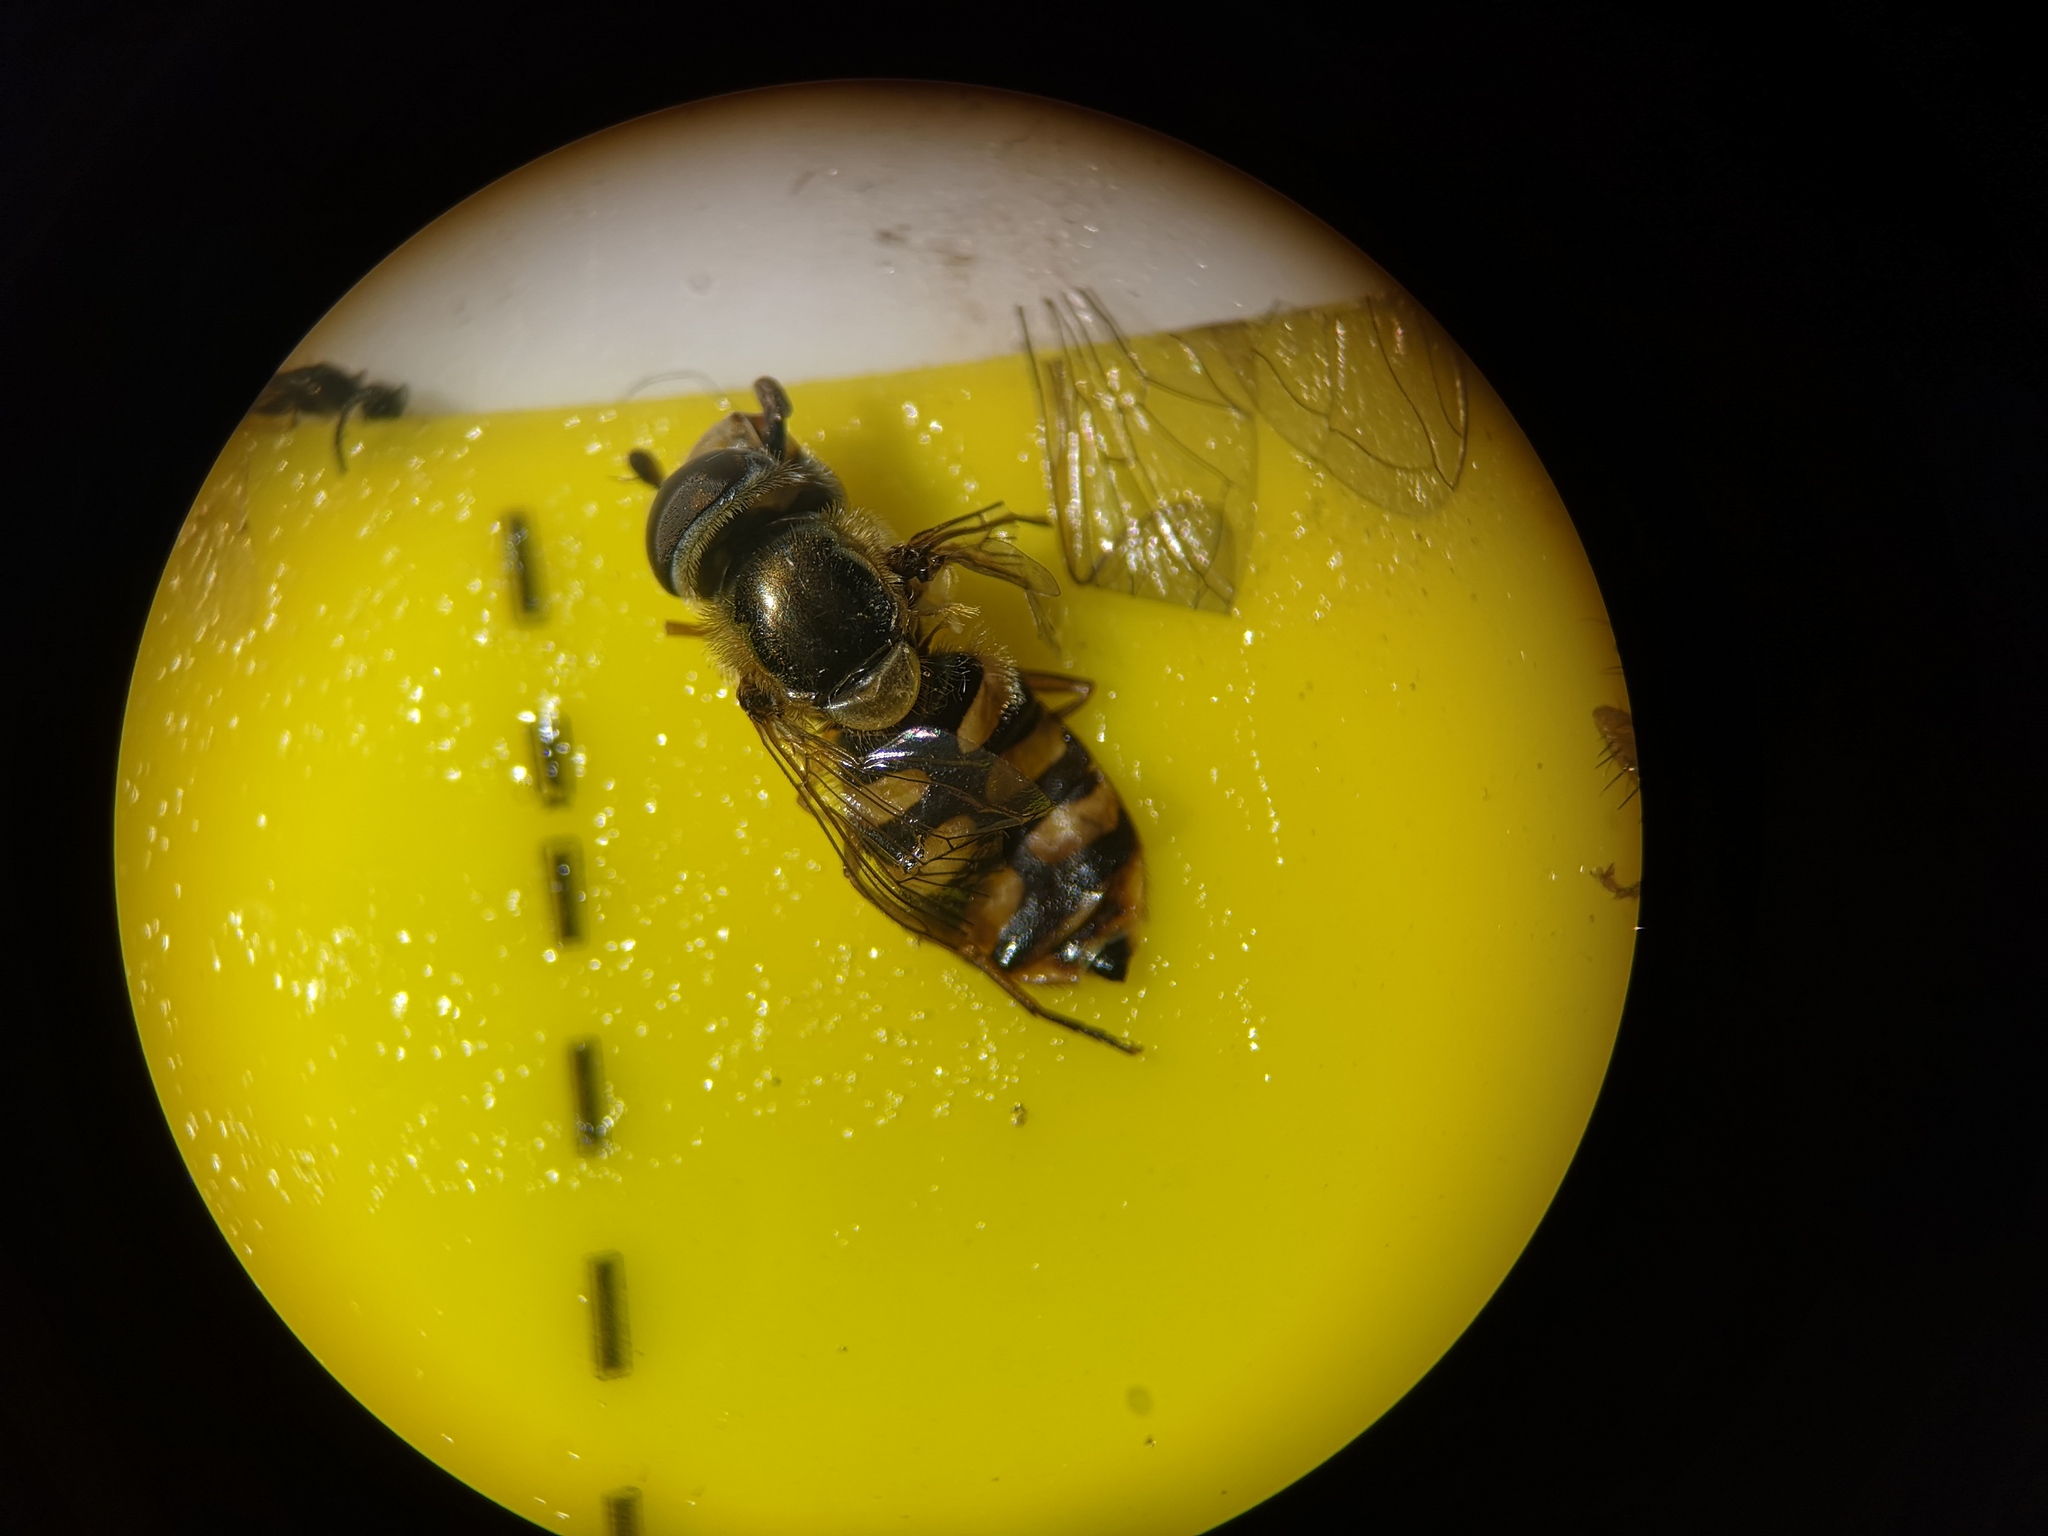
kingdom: Animalia
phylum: Arthropoda
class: Insecta
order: Diptera
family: Syrphidae
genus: Eupeodes
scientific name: Eupeodes corollae
